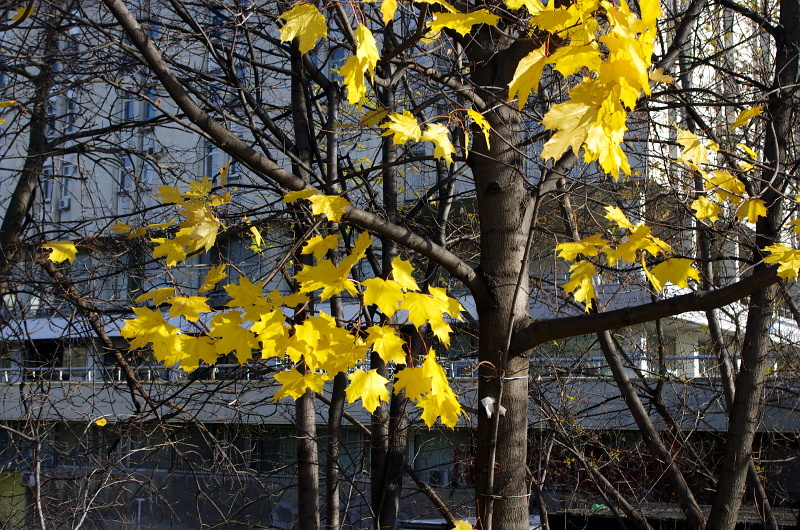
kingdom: Plantae
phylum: Tracheophyta
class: Magnoliopsida
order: Sapindales
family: Sapindaceae
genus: Acer
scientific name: Acer platanoides
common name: Norway maple
